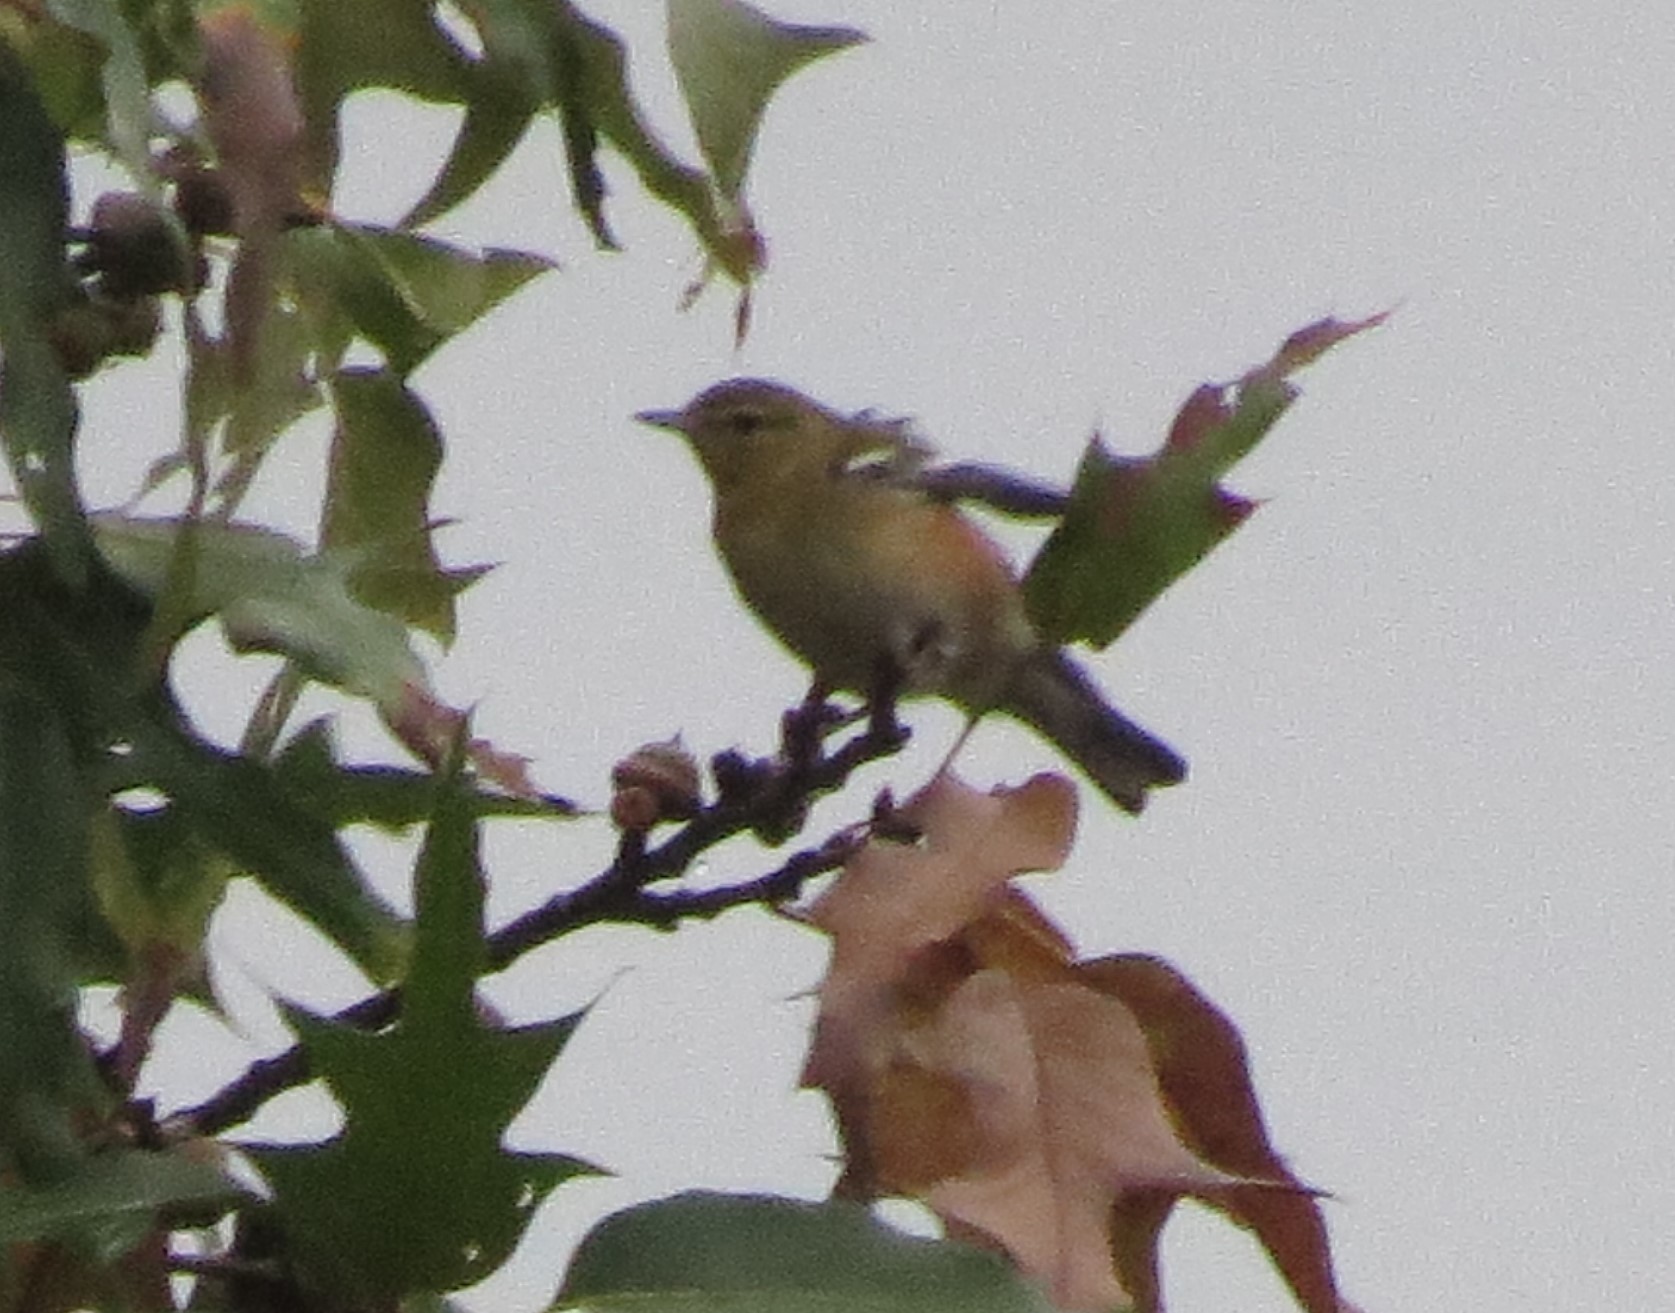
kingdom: Animalia
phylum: Chordata
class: Aves
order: Passeriformes
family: Parulidae
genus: Setophaga
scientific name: Setophaga castanea
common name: Bay-breasted warbler
